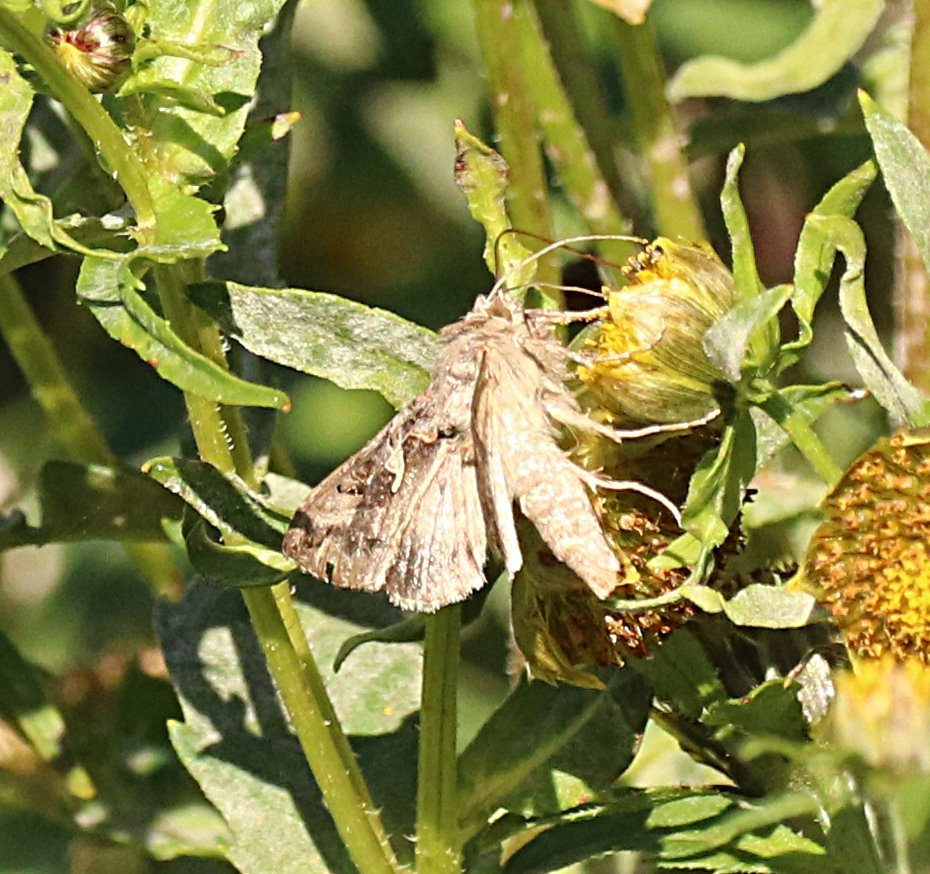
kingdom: Animalia
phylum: Arthropoda
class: Insecta
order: Lepidoptera
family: Noctuidae
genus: Autographa
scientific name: Autographa gamma
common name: Silver y
